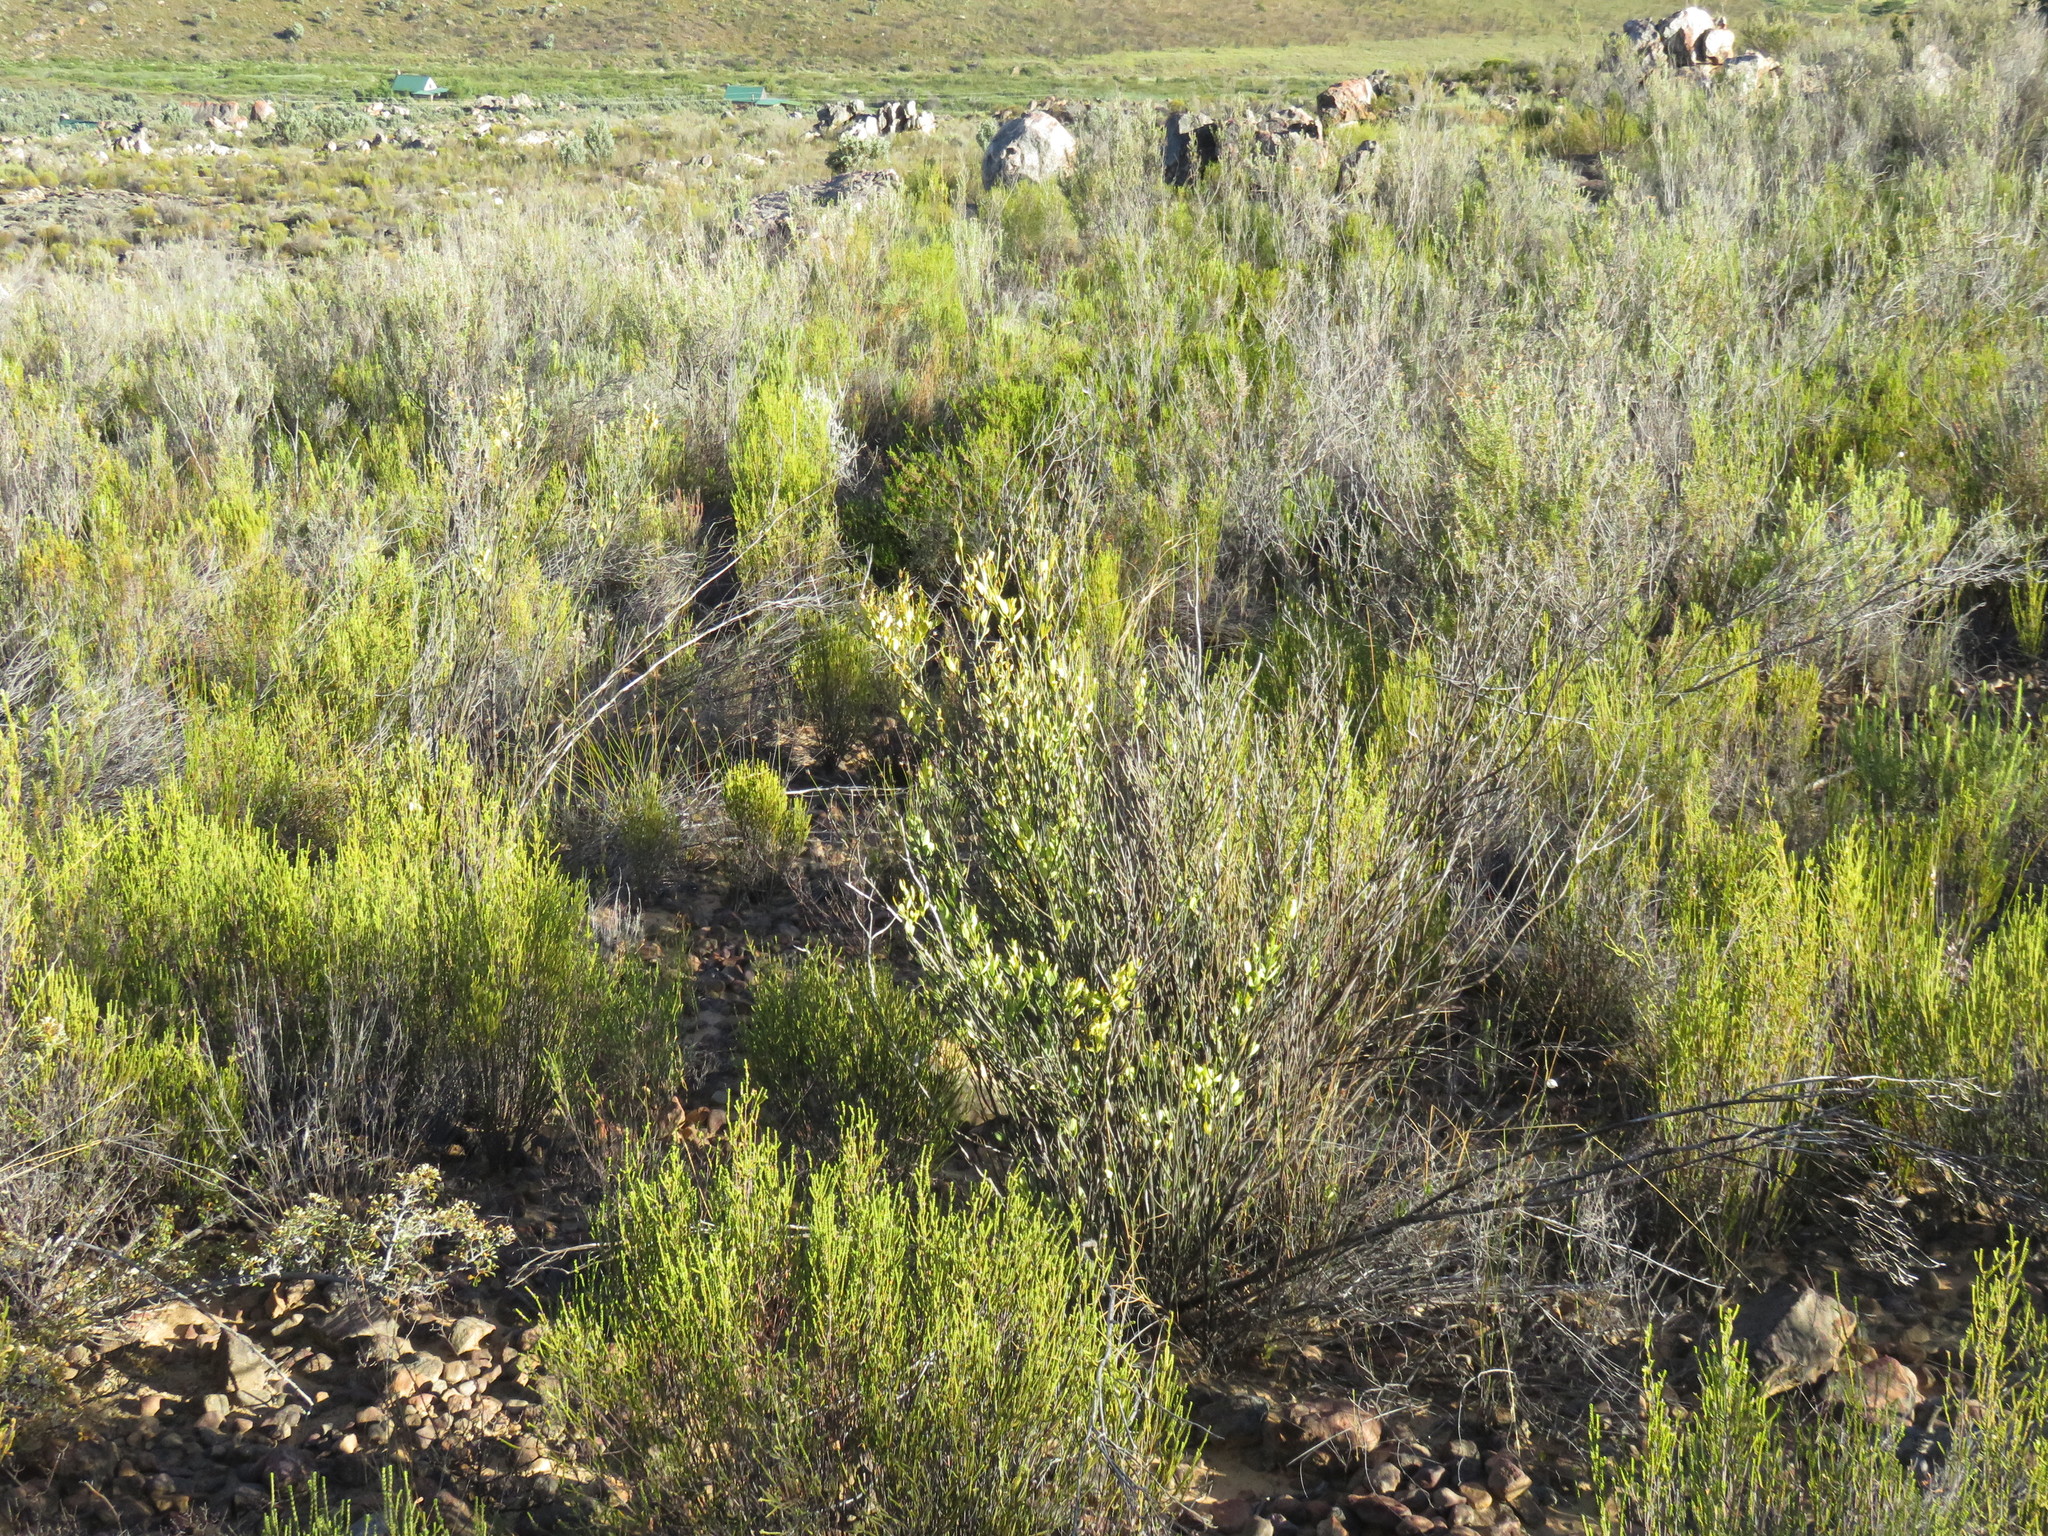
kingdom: Plantae
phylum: Tracheophyta
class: Magnoliopsida
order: Solanales
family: Montiniaceae
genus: Montinia
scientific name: Montinia caryophyllacea
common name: Wild clove-bush
